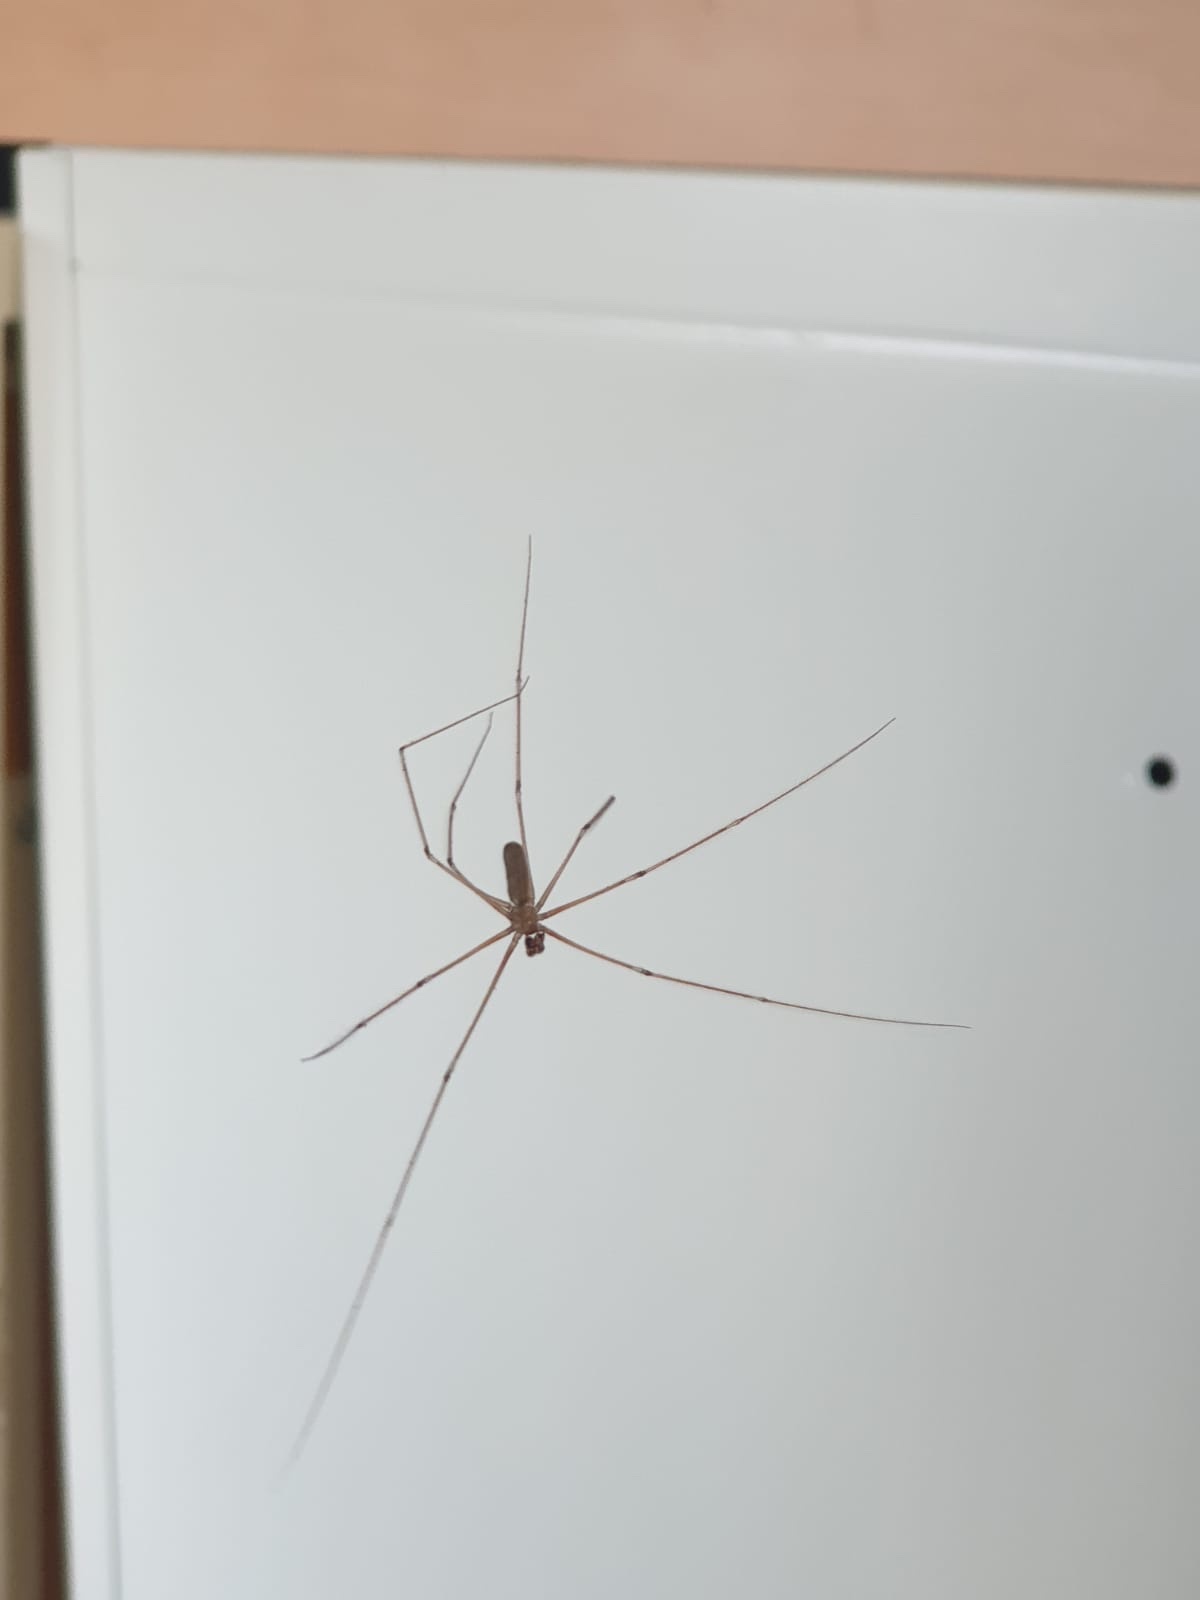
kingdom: Animalia
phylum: Arthropoda
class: Arachnida
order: Araneae
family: Pholcidae
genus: Pholcus
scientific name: Pholcus phalangioides
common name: Longbodied cellar spider
